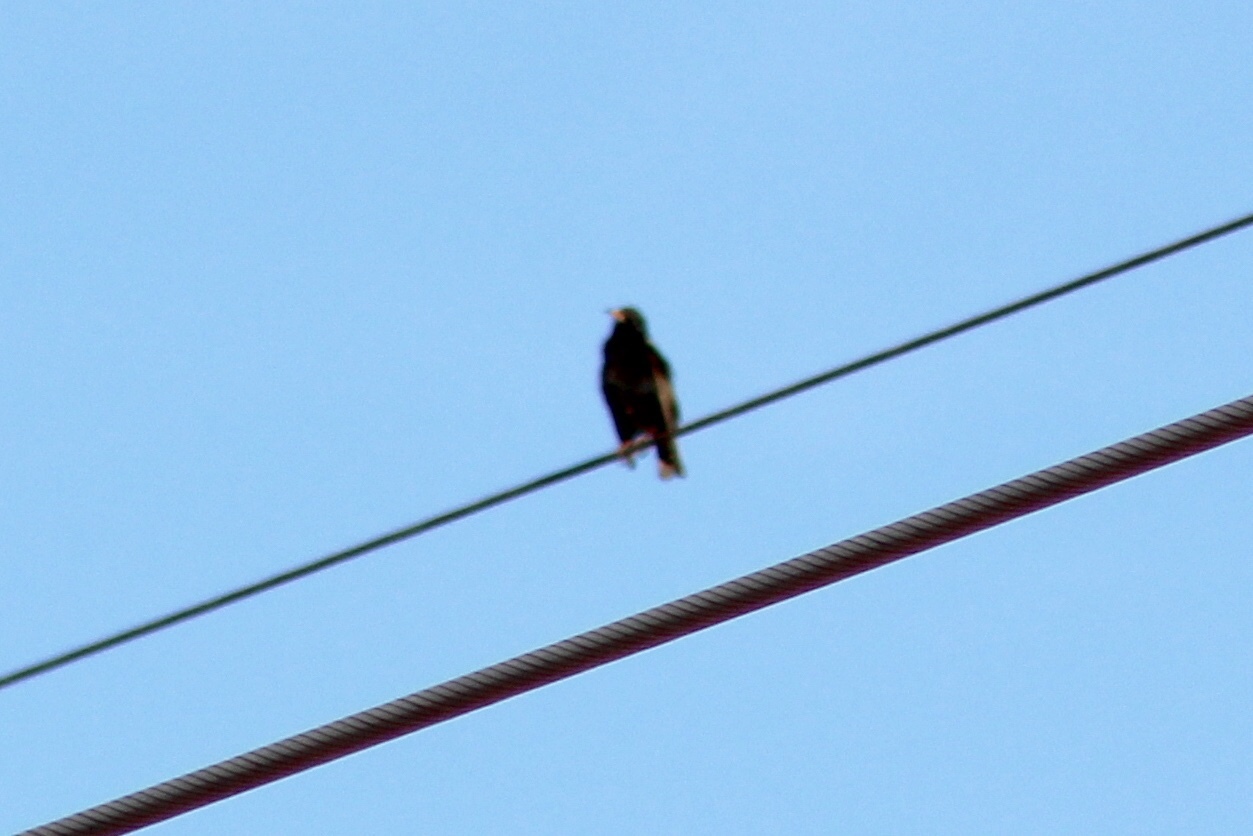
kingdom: Animalia
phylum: Chordata
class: Aves
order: Passeriformes
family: Sturnidae
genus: Sturnus
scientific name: Sturnus vulgaris
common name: Common starling
